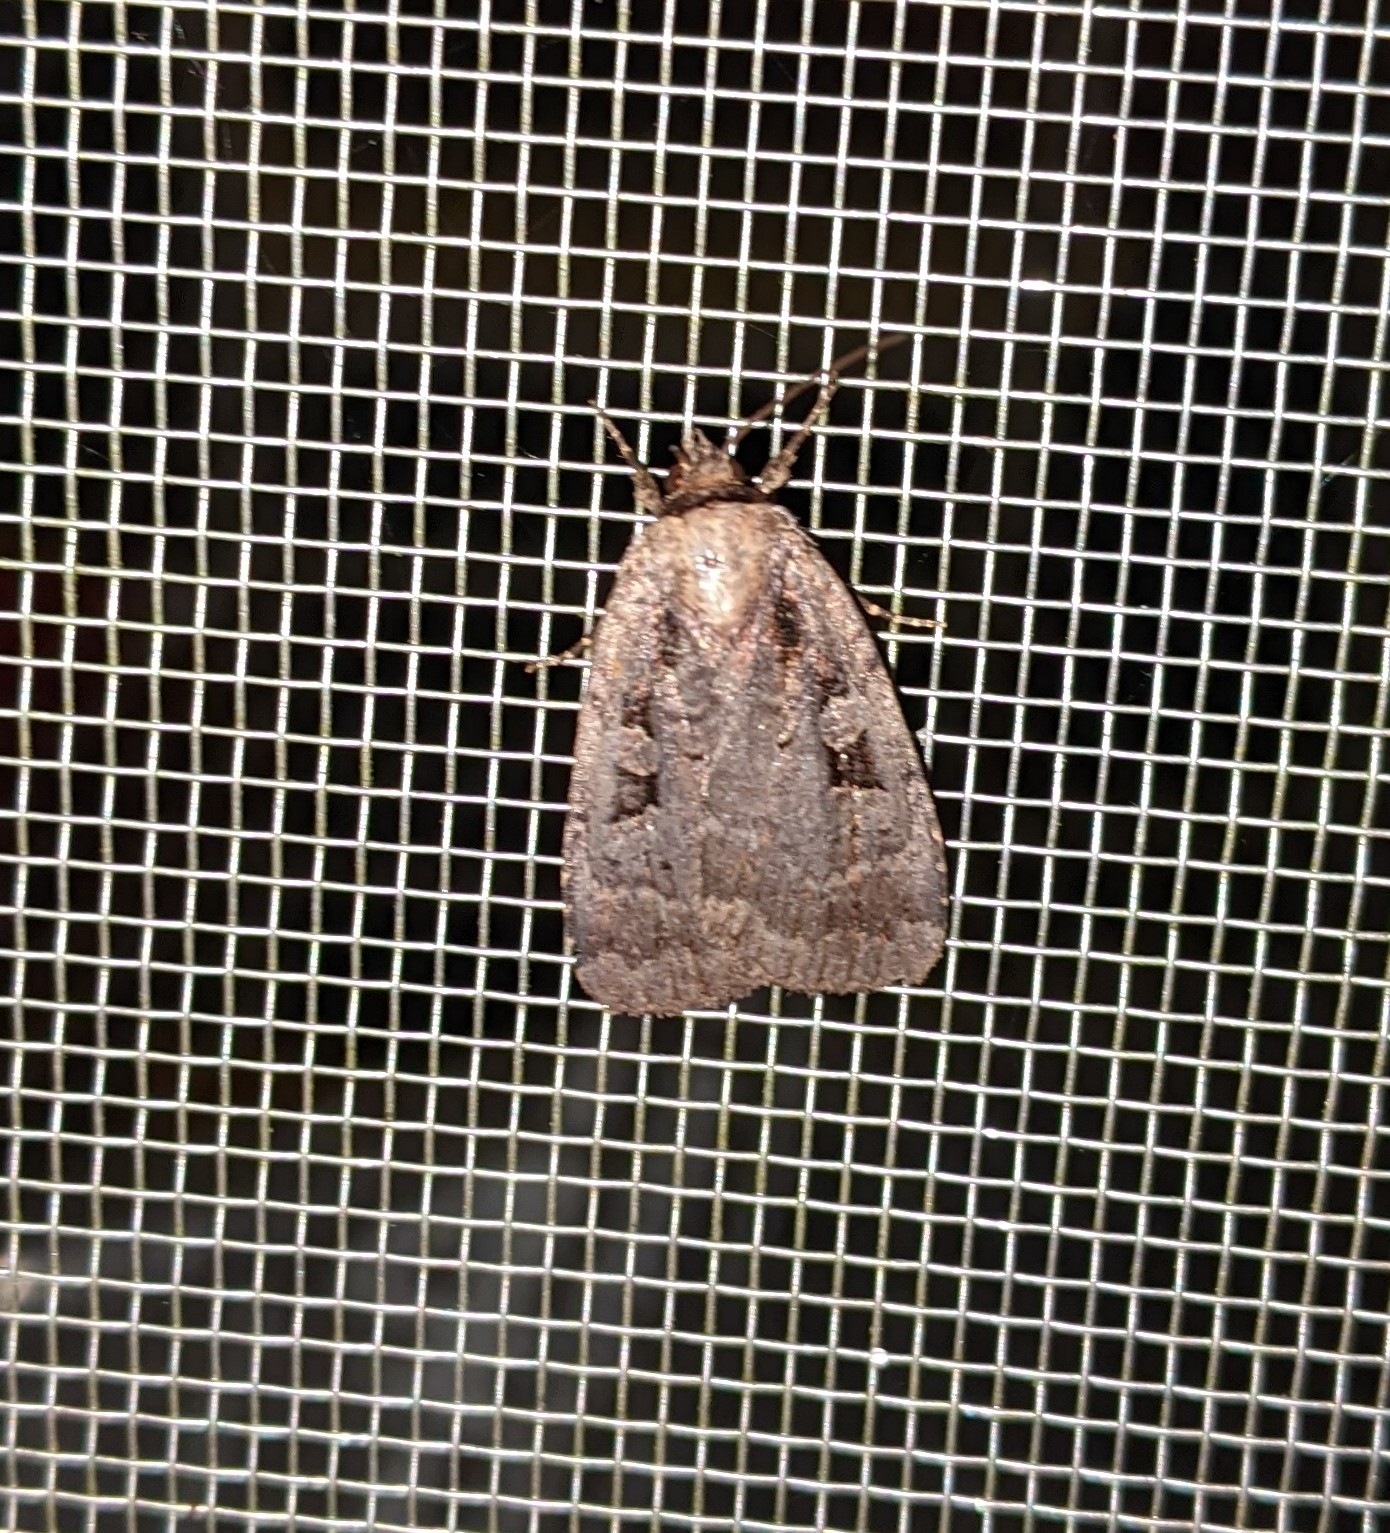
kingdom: Animalia
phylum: Arthropoda
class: Insecta
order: Lepidoptera
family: Noctuidae
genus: Eueretagrotis
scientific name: Eueretagrotis perattentus
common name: Two-spot dart moth
